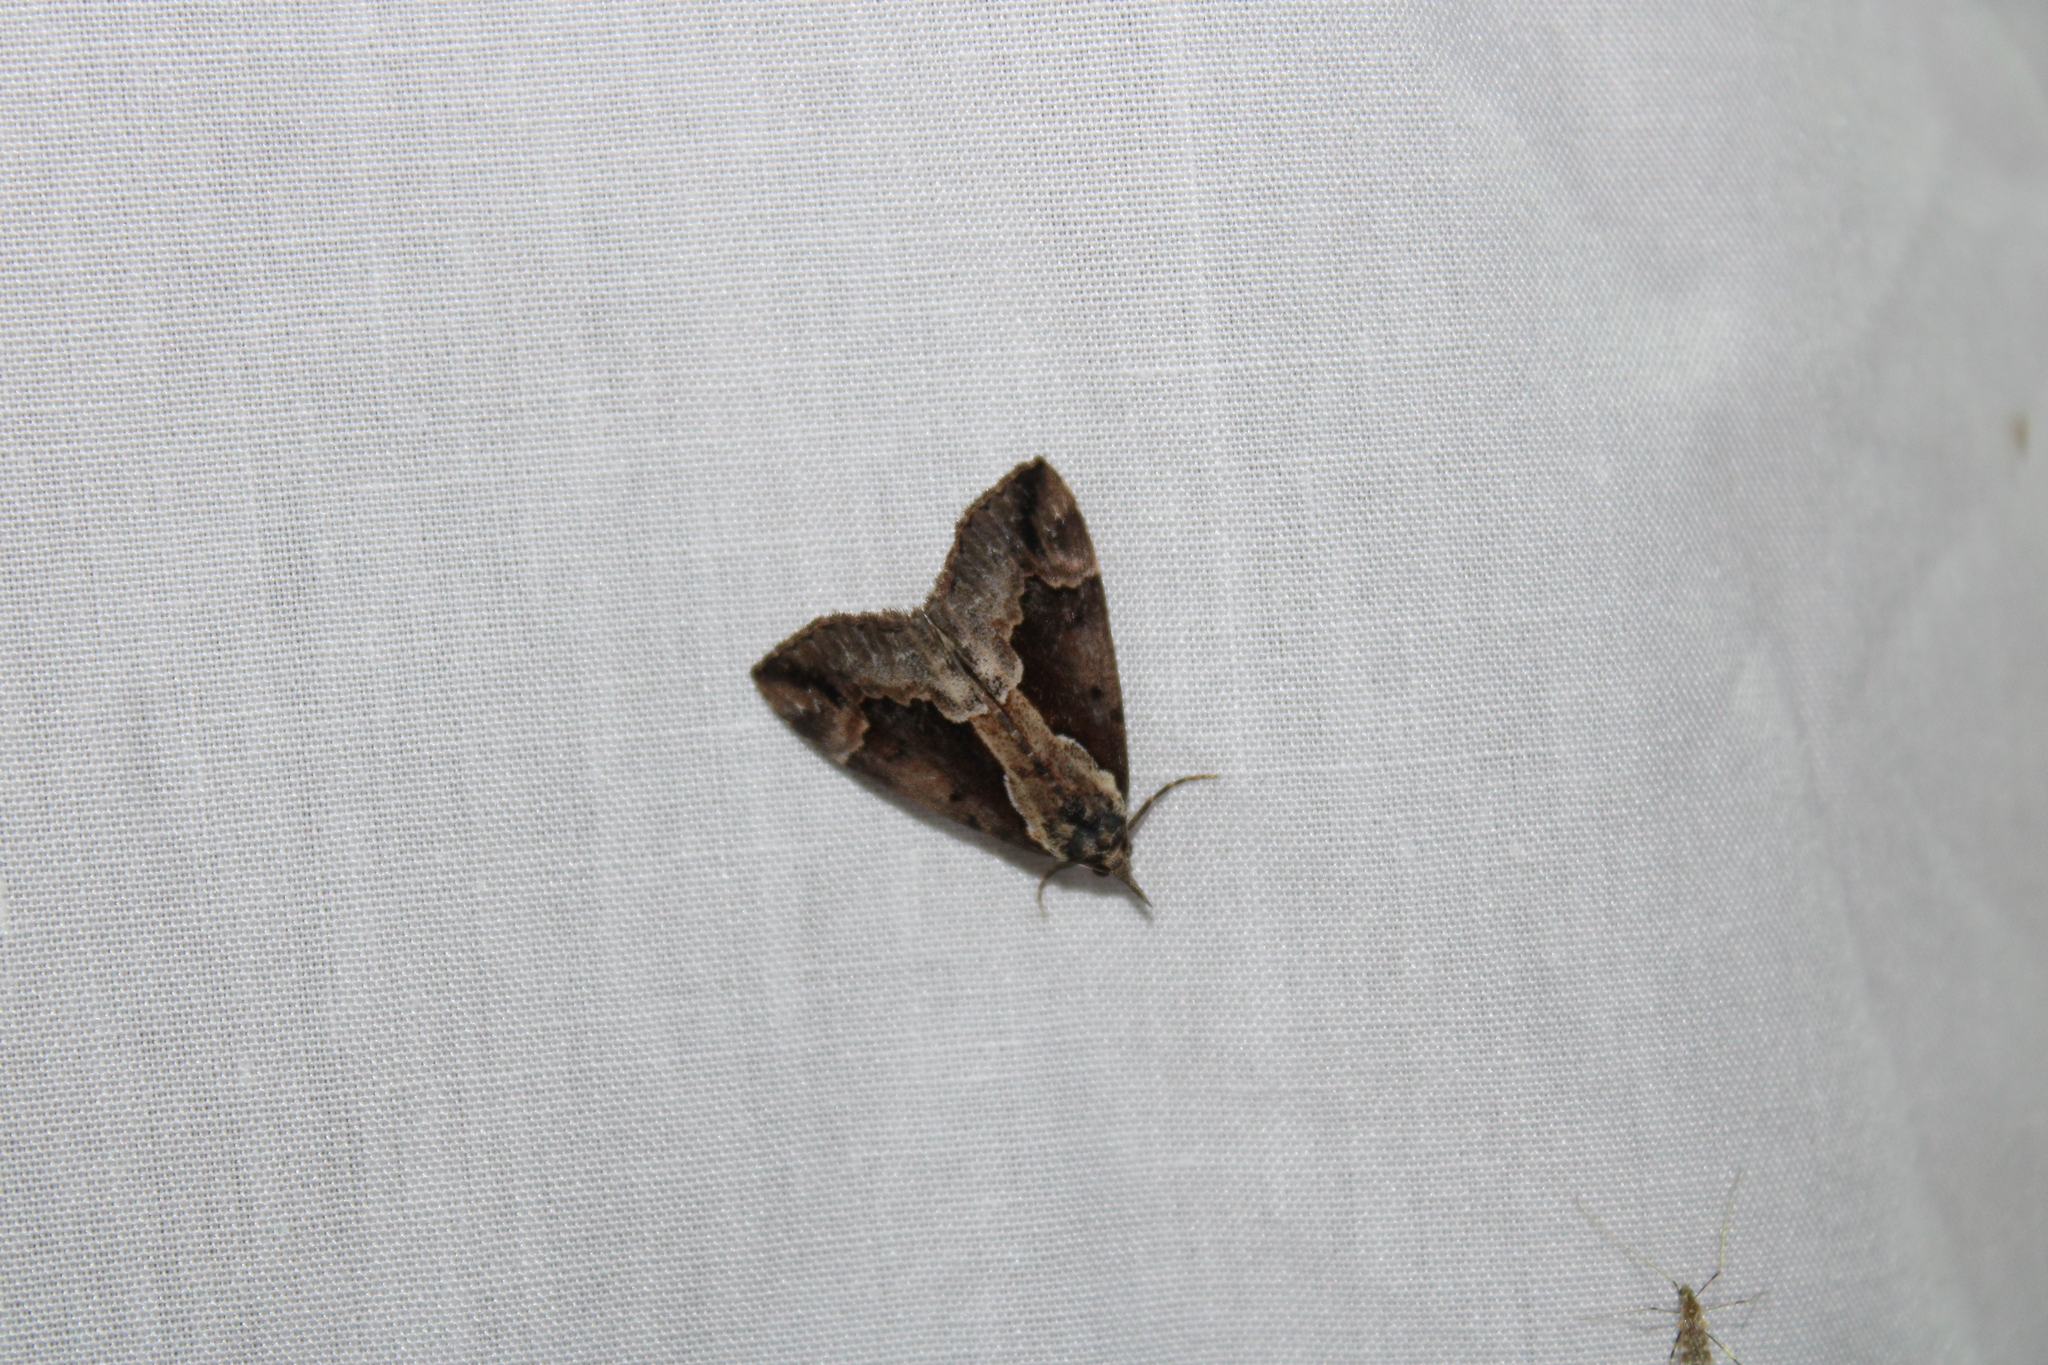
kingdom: Animalia
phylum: Arthropoda
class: Insecta
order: Lepidoptera
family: Erebidae
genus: Hypena
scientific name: Hypena baltimoralis
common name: Baltimore snout
